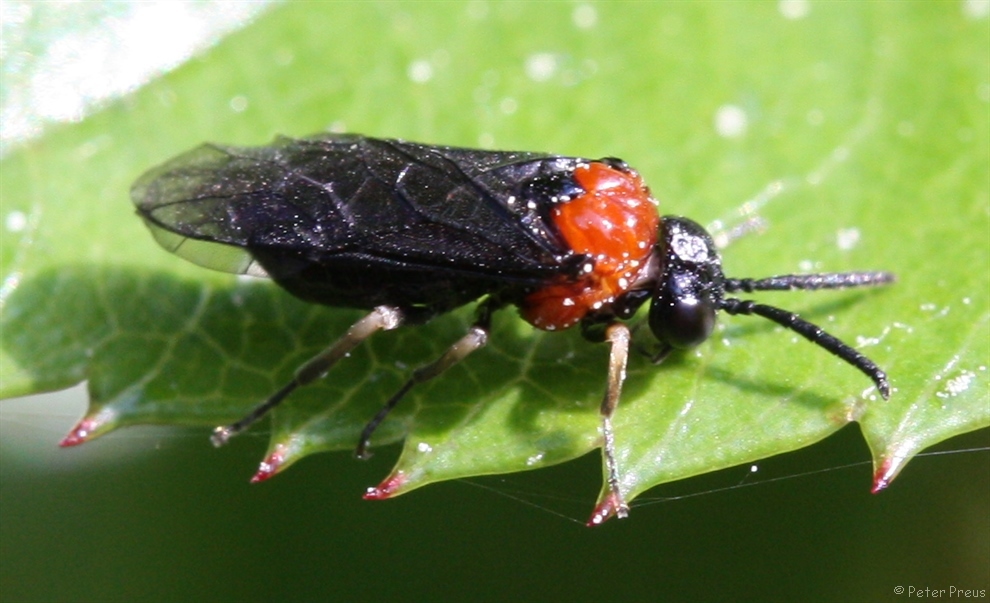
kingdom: Animalia
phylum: Arthropoda
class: Insecta
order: Hymenoptera
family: Tenthredinidae
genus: Eutomostethus
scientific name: Eutomostethus ephippium
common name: Tenthredid wasp
